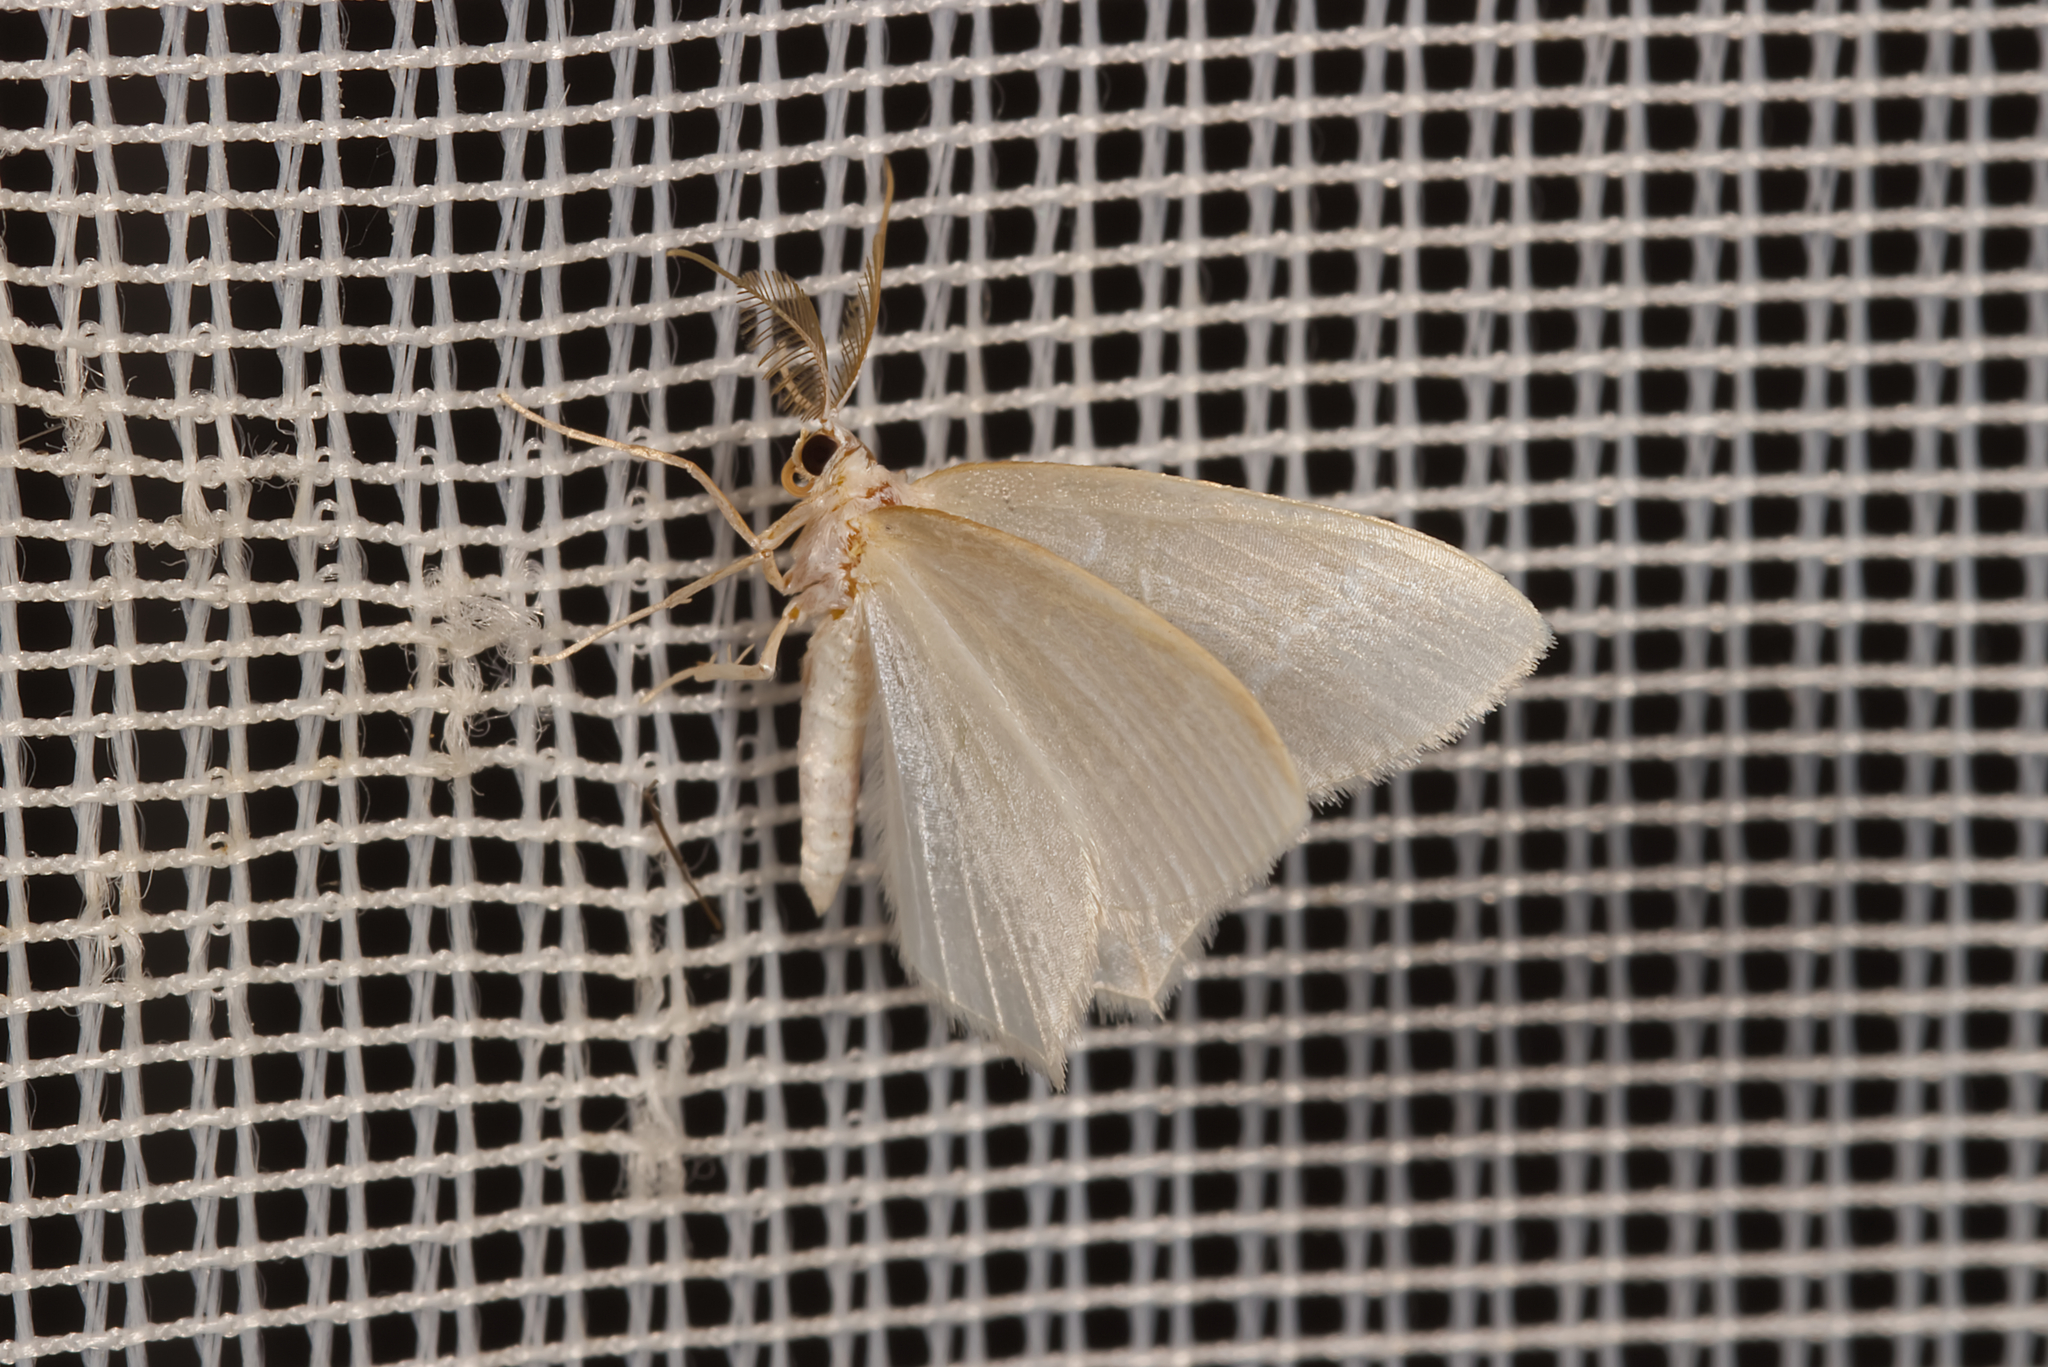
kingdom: Animalia
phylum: Arthropoda
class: Insecta
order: Lepidoptera
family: Geometridae
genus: Jodis
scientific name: Jodis lactearia
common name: Little emerald
